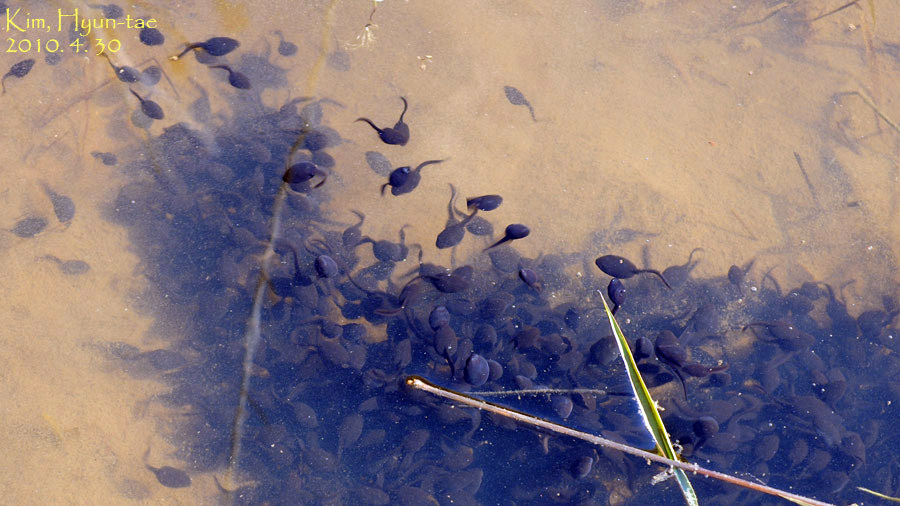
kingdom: Animalia
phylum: Chordata
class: Amphibia
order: Anura
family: Bufonidae
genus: Bufo
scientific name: Bufo gargarizans
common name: Asiatic toad
